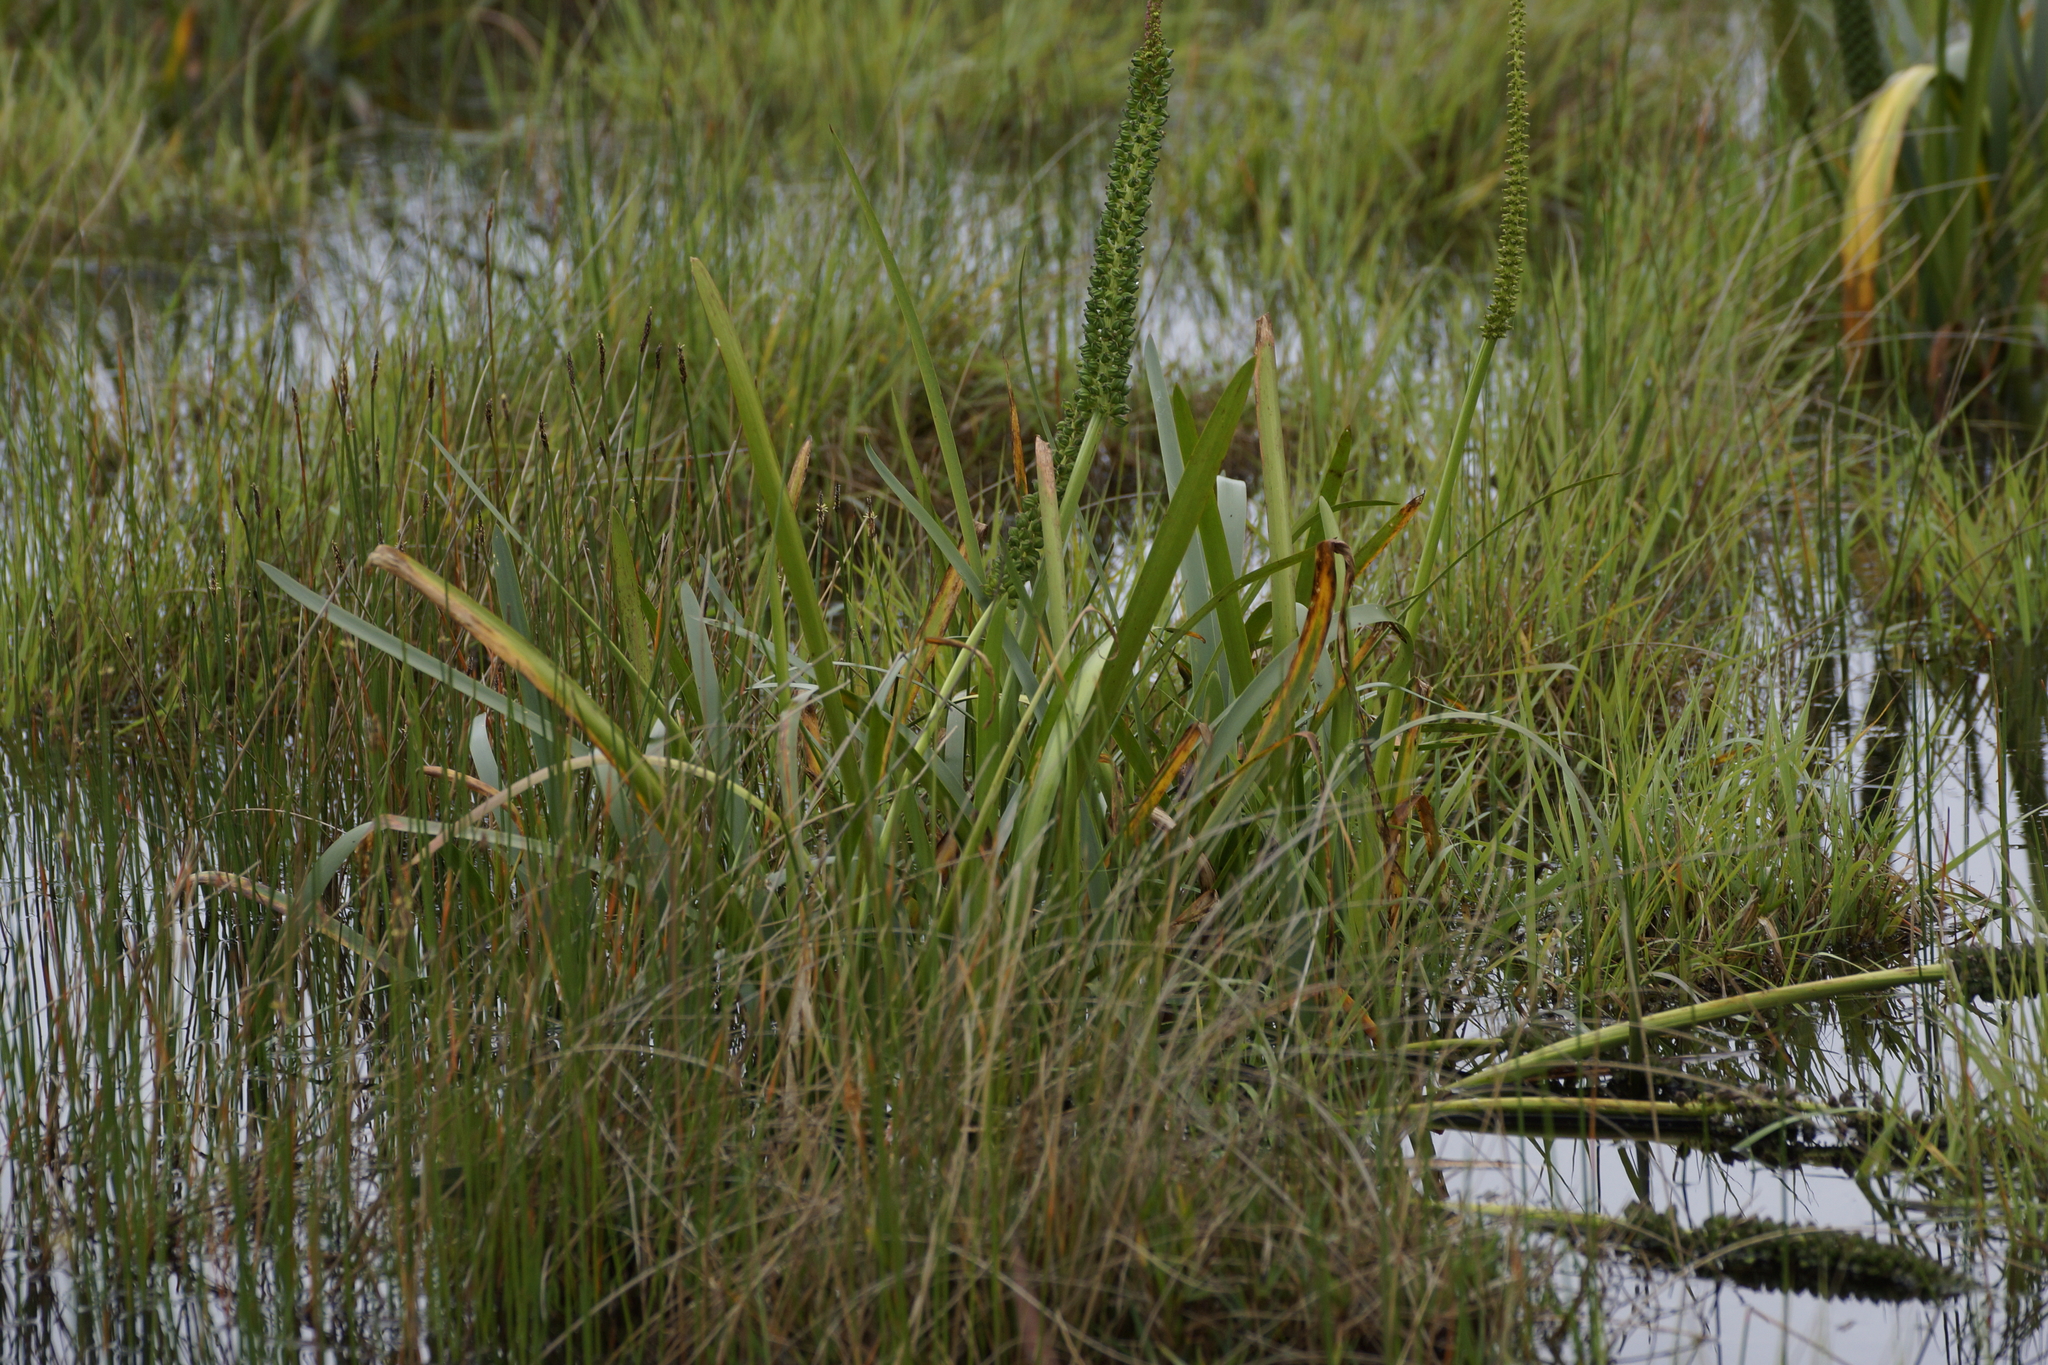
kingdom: Plantae
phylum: Tracheophyta
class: Liliopsida
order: Alismatales
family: Juncaginaceae
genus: Cycnogeton
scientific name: Cycnogeton procerum
